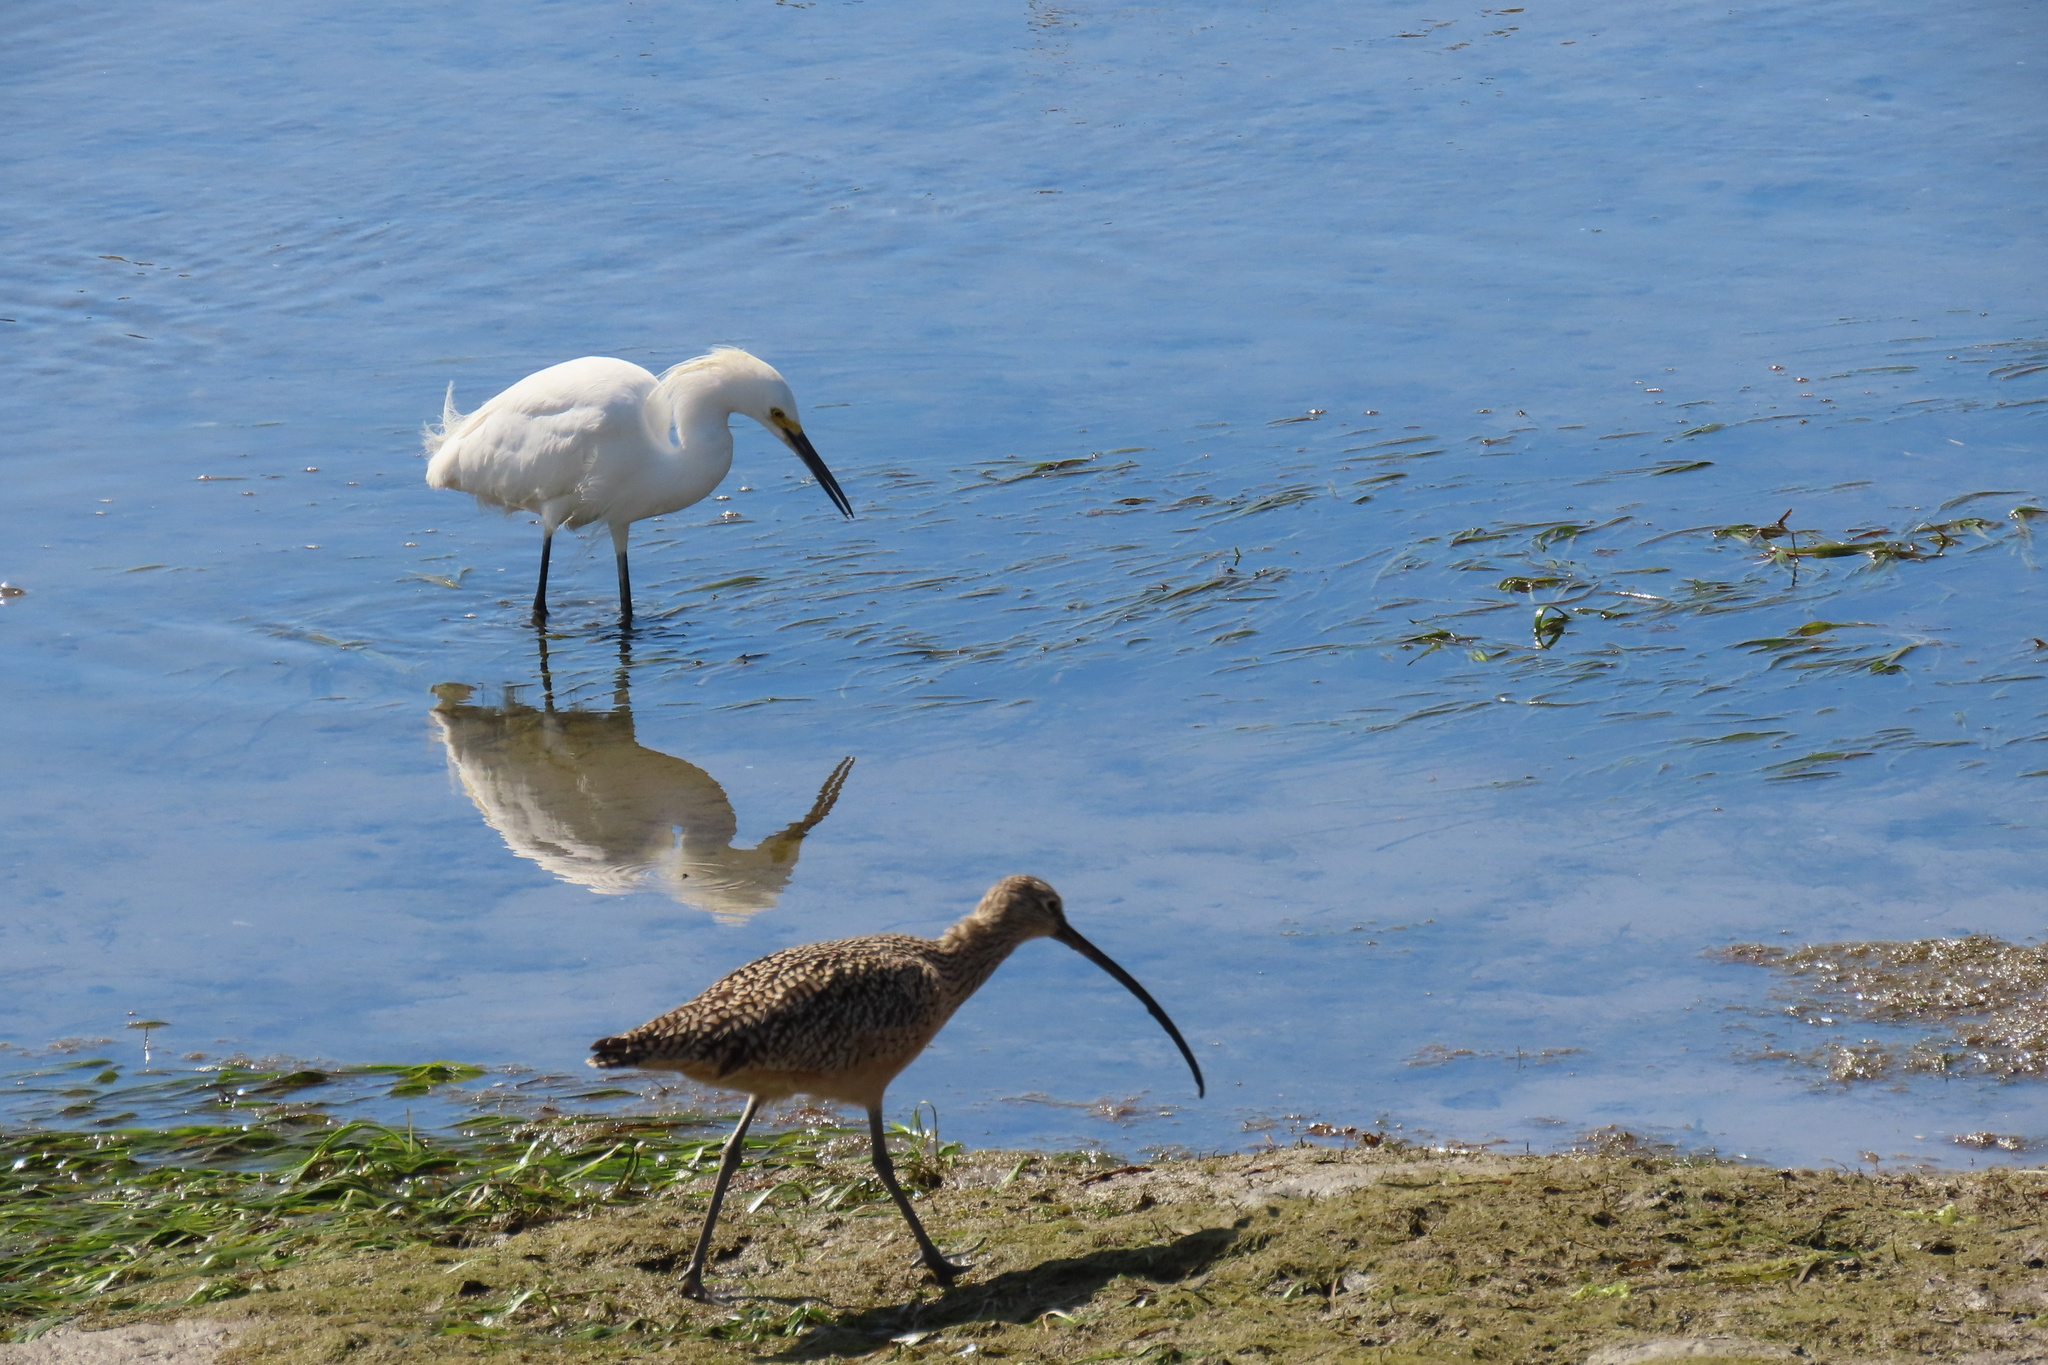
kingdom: Animalia
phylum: Chordata
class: Aves
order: Charadriiformes
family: Scolopacidae
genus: Numenius
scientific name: Numenius americanus
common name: Long-billed curlew
